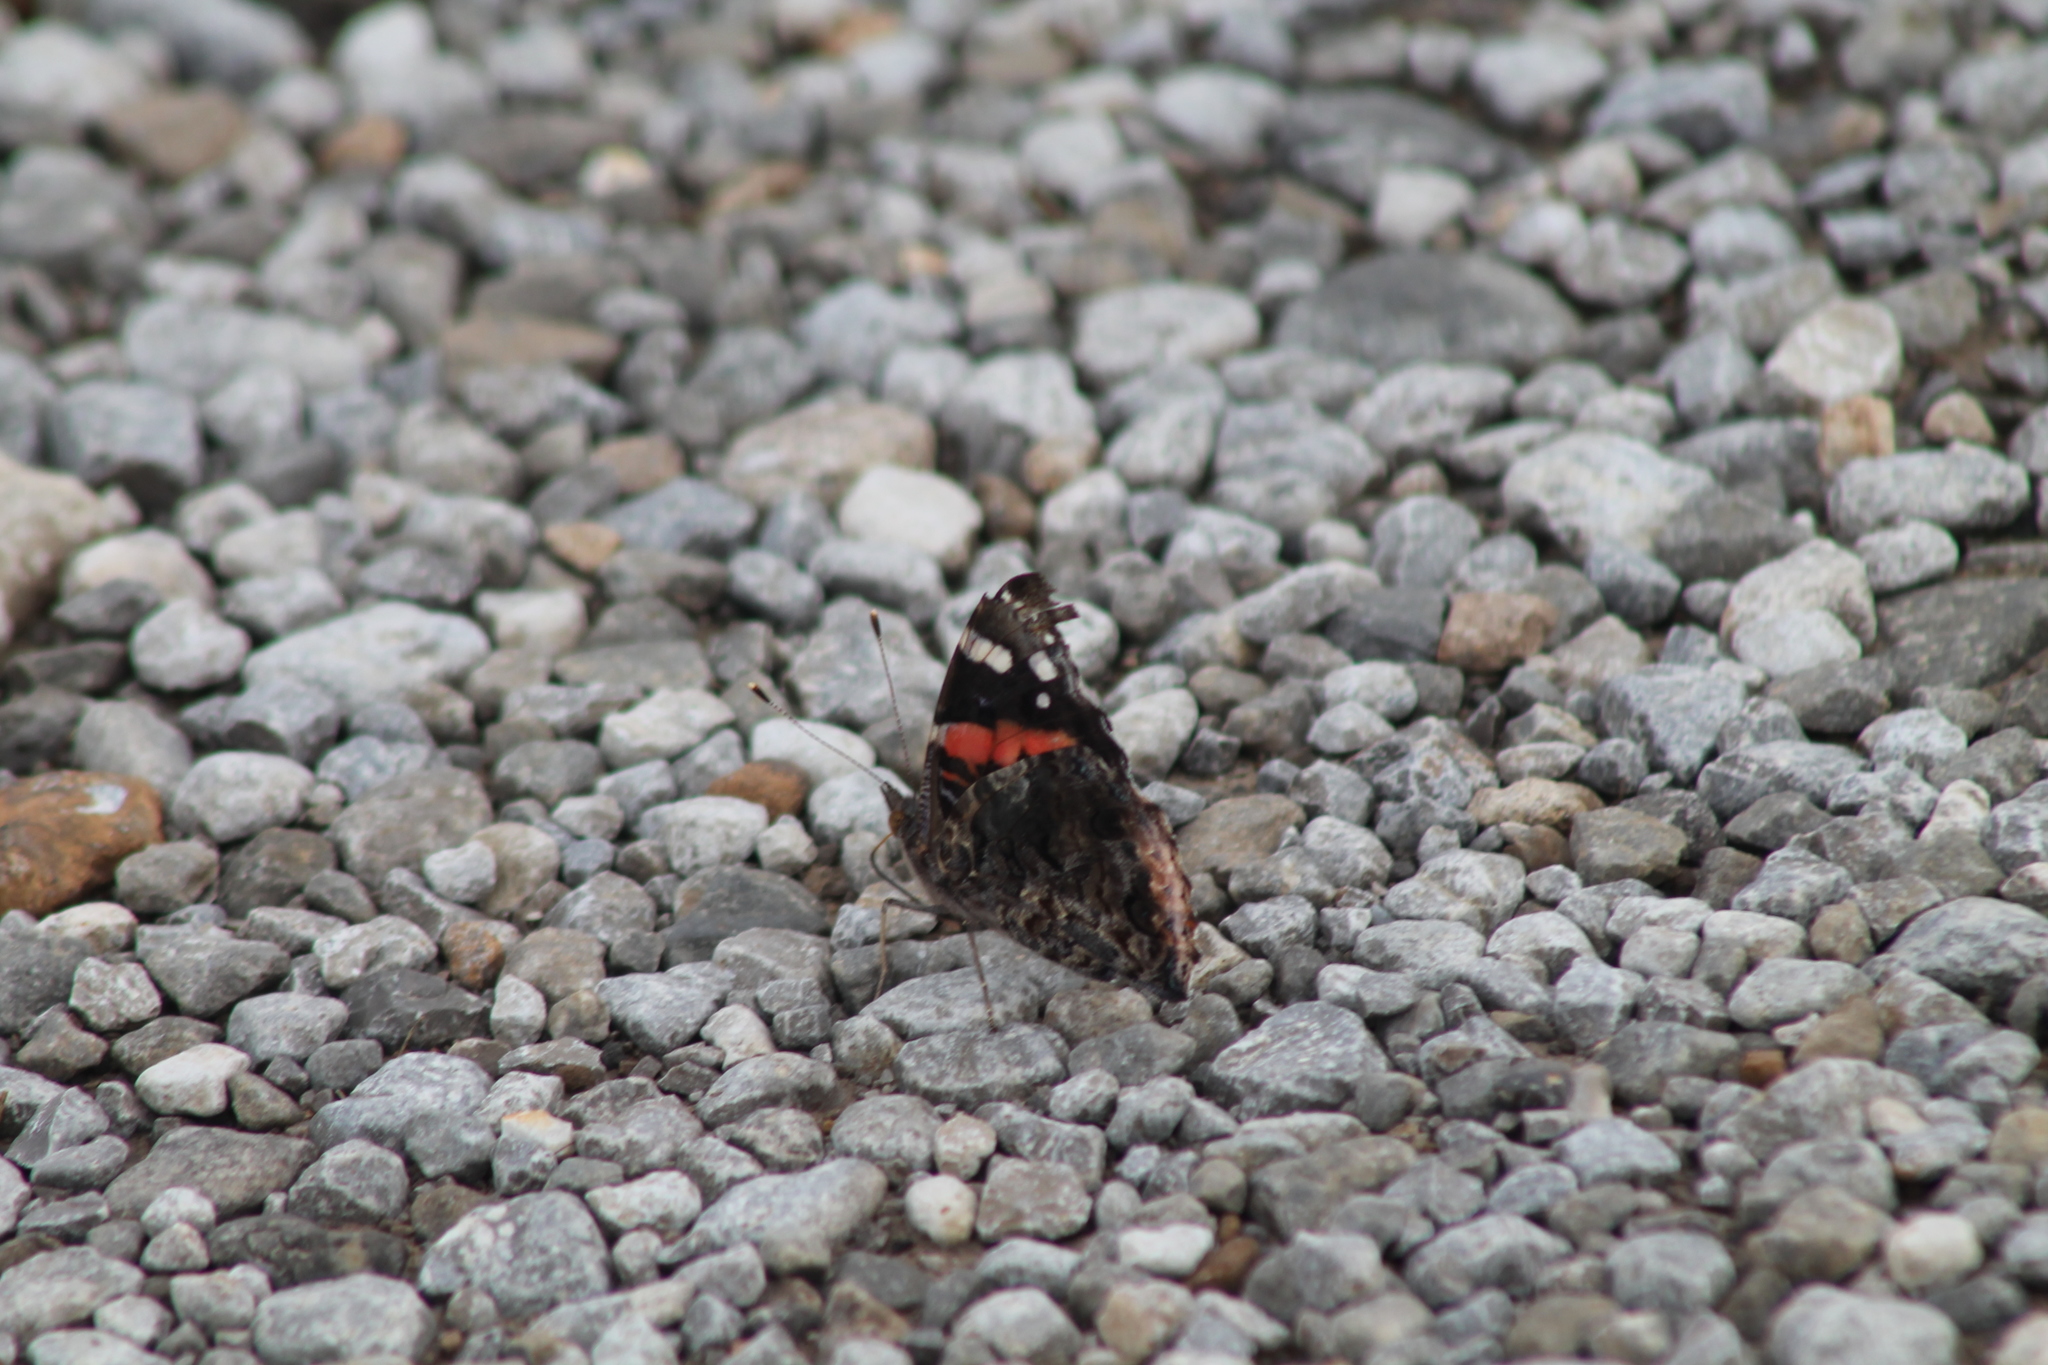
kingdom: Animalia
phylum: Arthropoda
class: Insecta
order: Lepidoptera
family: Nymphalidae
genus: Vanessa
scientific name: Vanessa atalanta
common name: Red admiral
